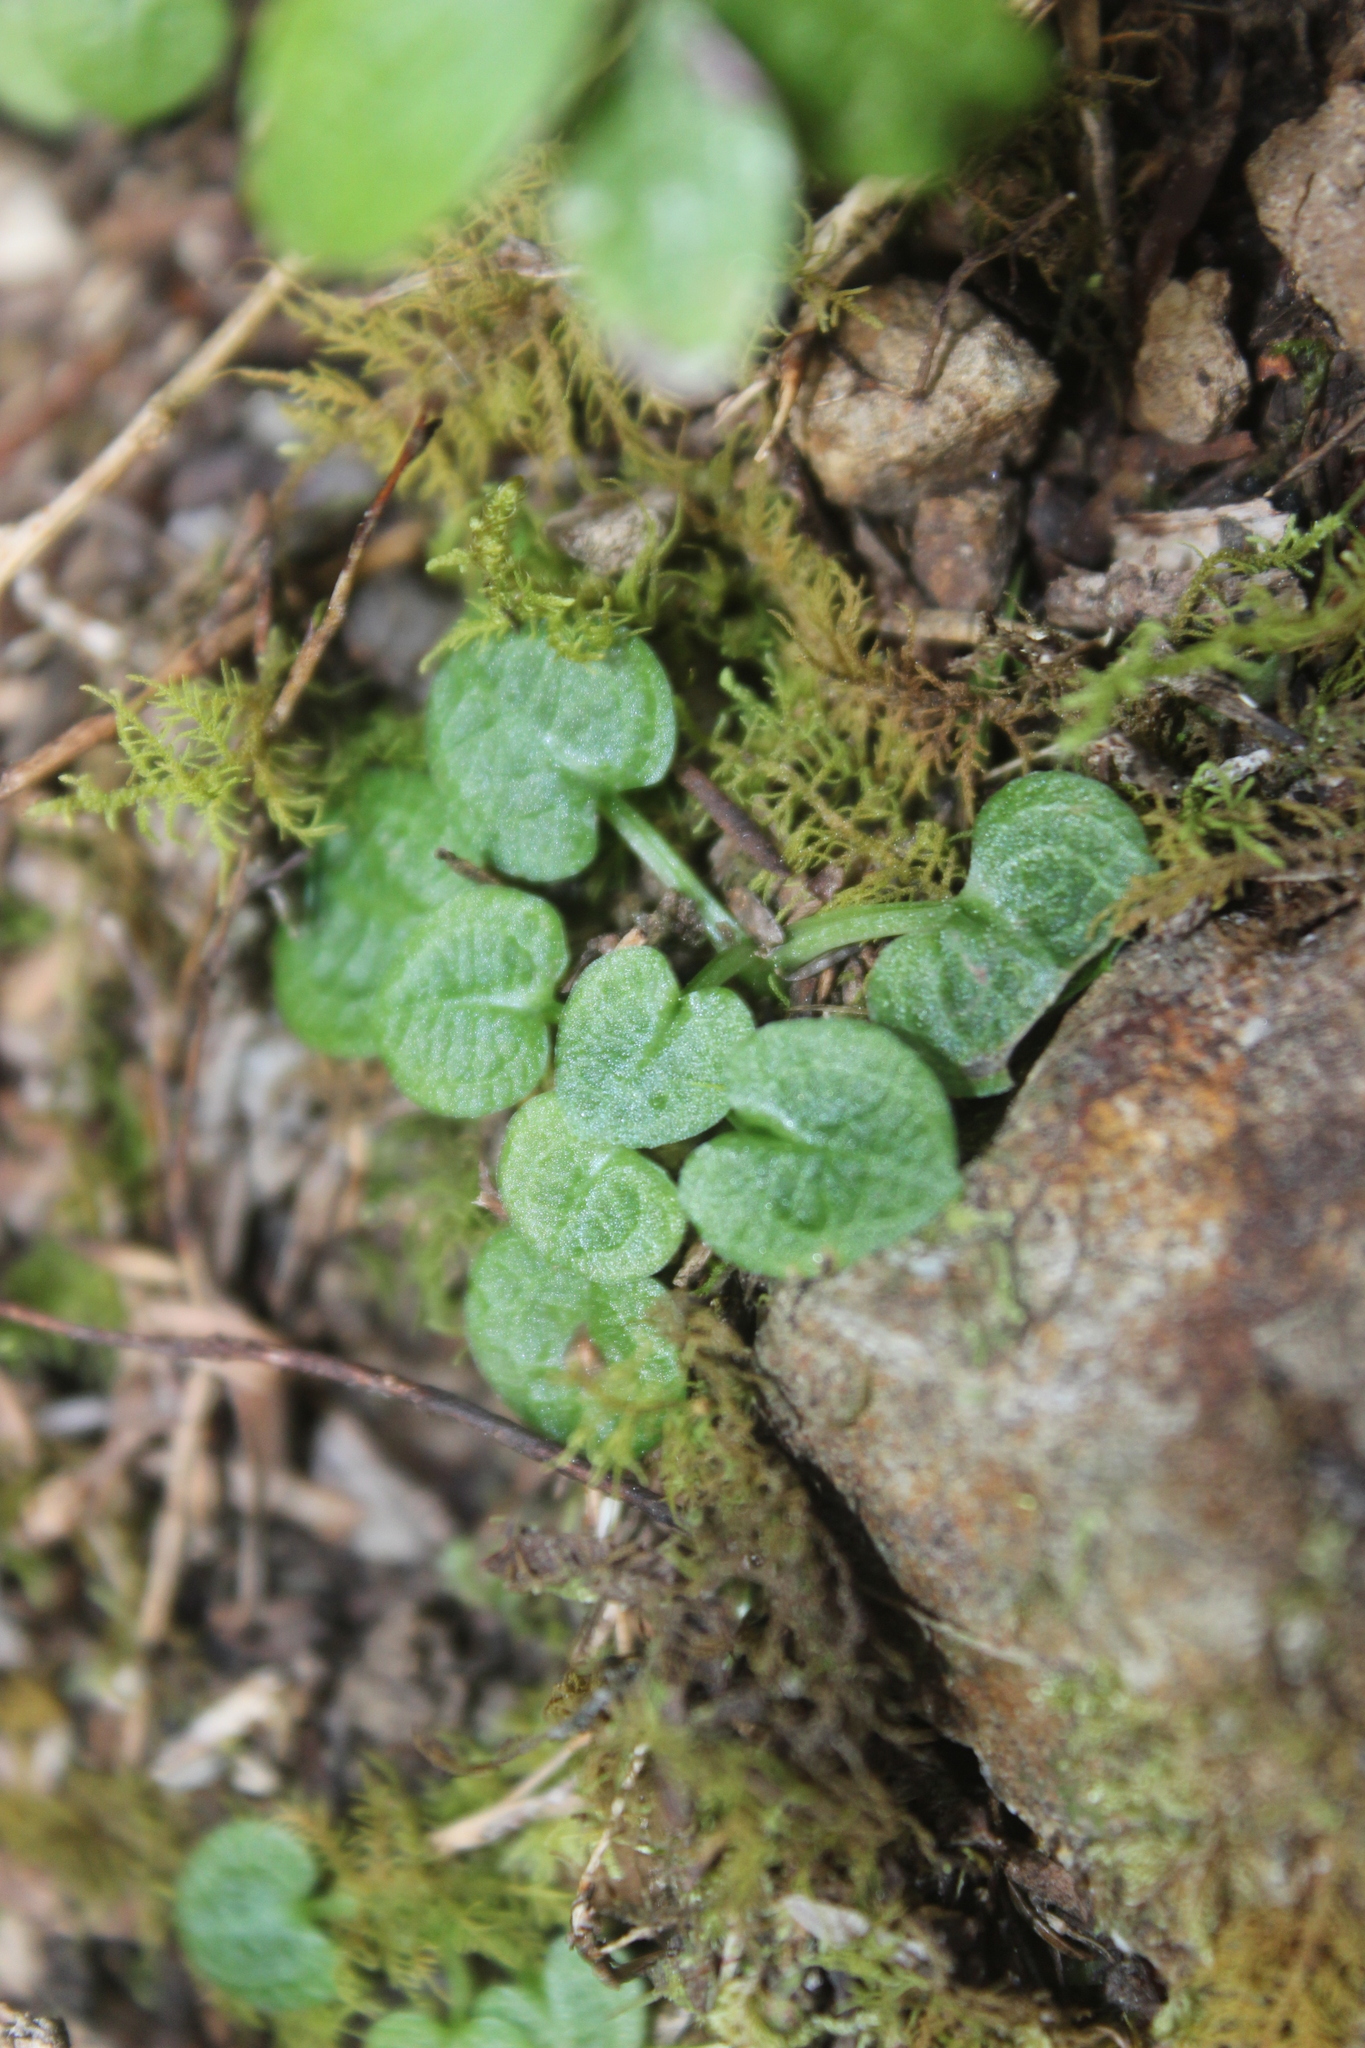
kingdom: Plantae
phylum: Tracheophyta
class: Liliopsida
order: Asparagales
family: Orchidaceae
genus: Pterostylis
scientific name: Pterostylis trullifolia
